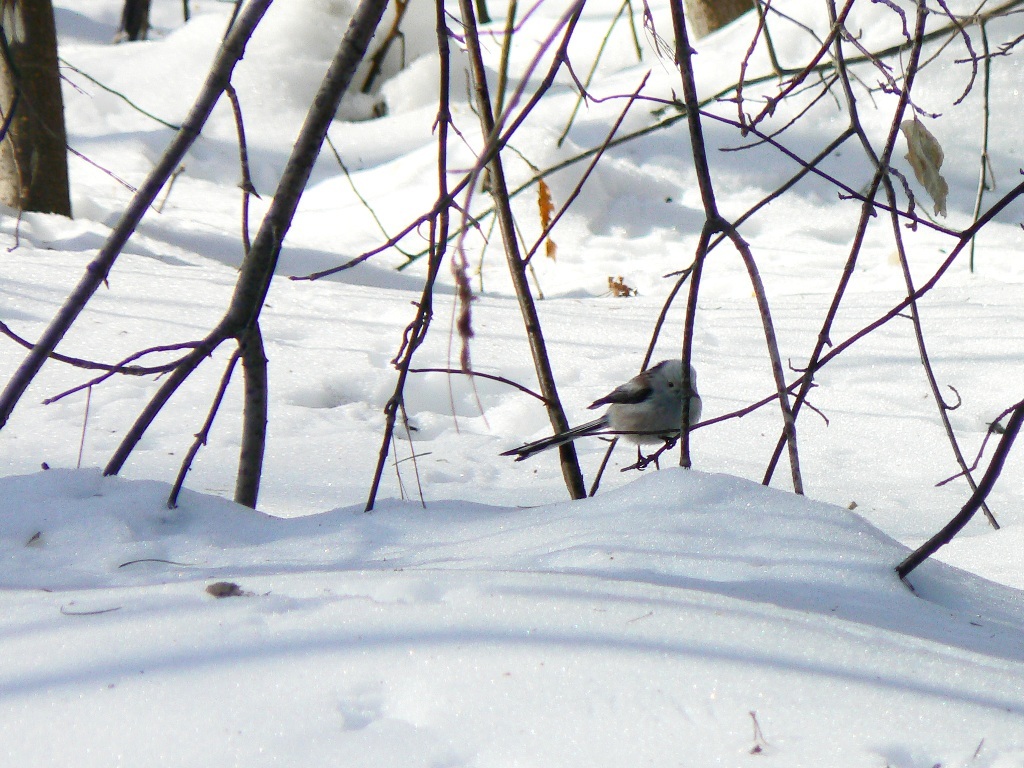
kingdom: Animalia
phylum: Chordata
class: Aves
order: Passeriformes
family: Aegithalidae
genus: Aegithalos
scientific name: Aegithalos caudatus
